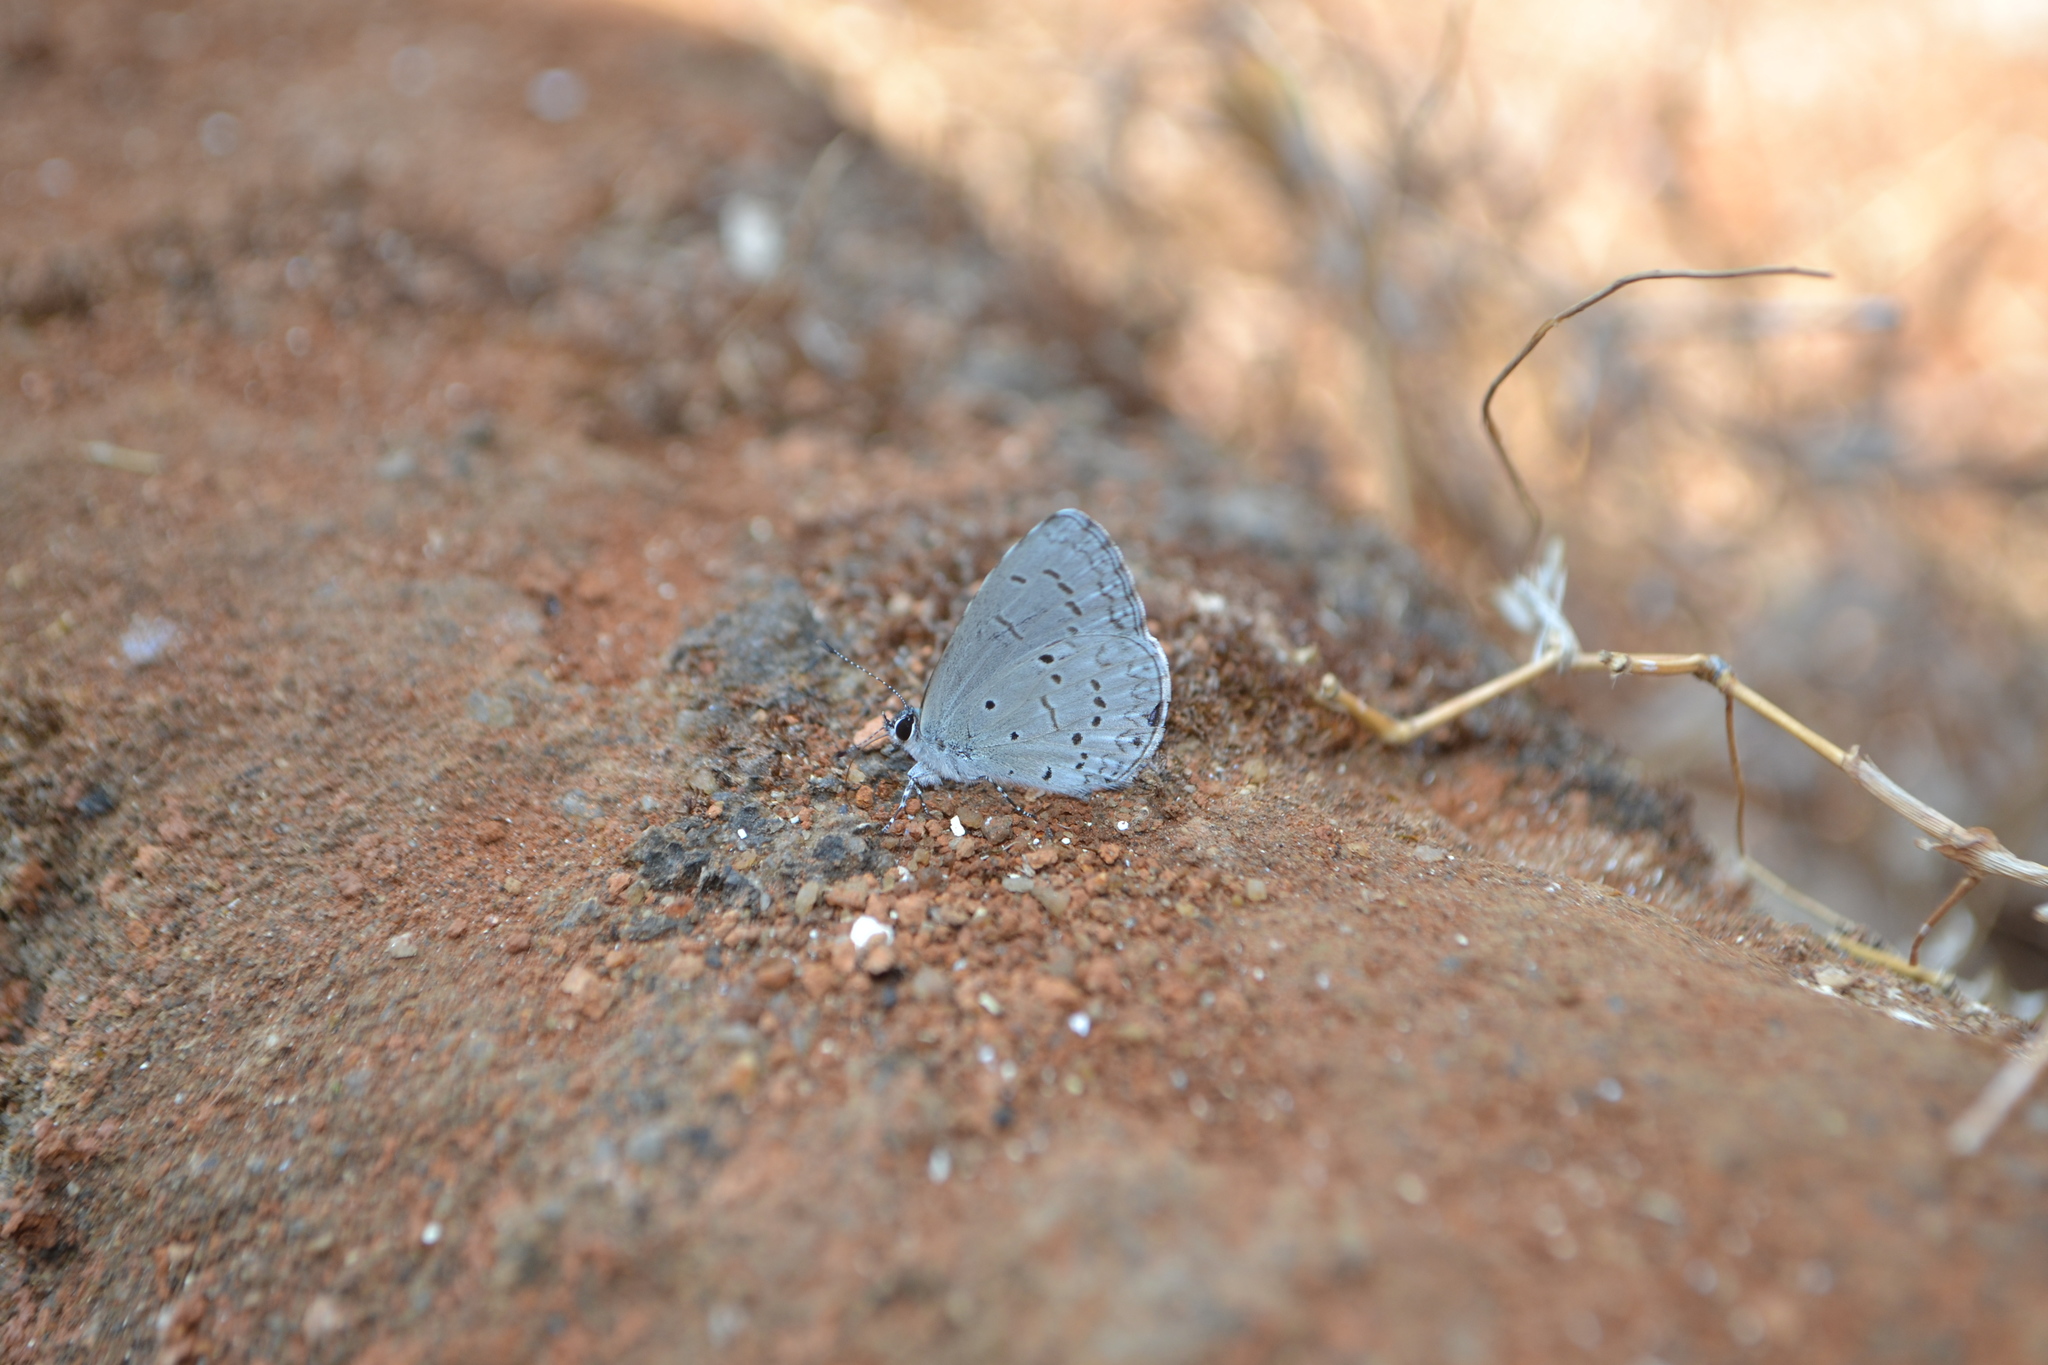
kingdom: Animalia
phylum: Arthropoda
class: Insecta
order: Lepidoptera
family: Lycaenidae
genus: Celastrina
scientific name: Celastrina lavendularis
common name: Plain hedge blue
